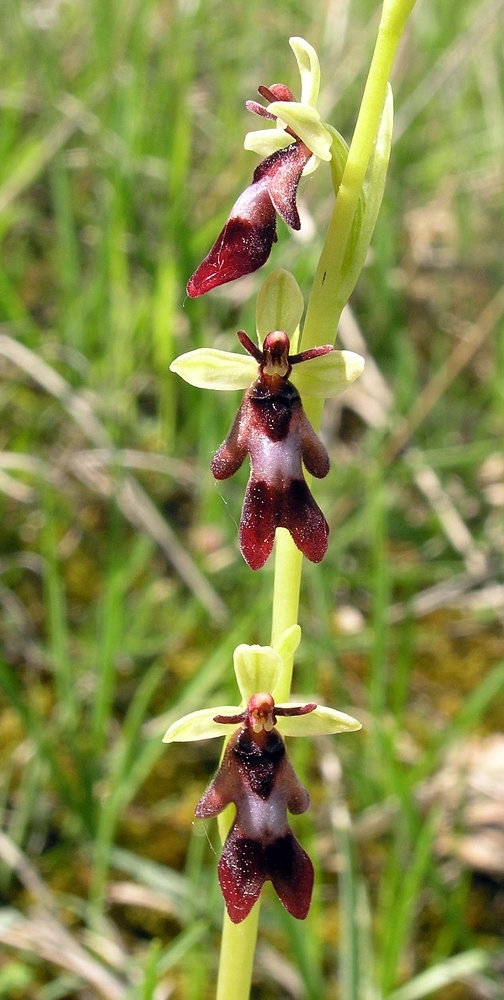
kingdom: Plantae
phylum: Tracheophyta
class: Liliopsida
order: Asparagales
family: Orchidaceae
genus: Ophrys
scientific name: Ophrys insectifera
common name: Fly orchid
